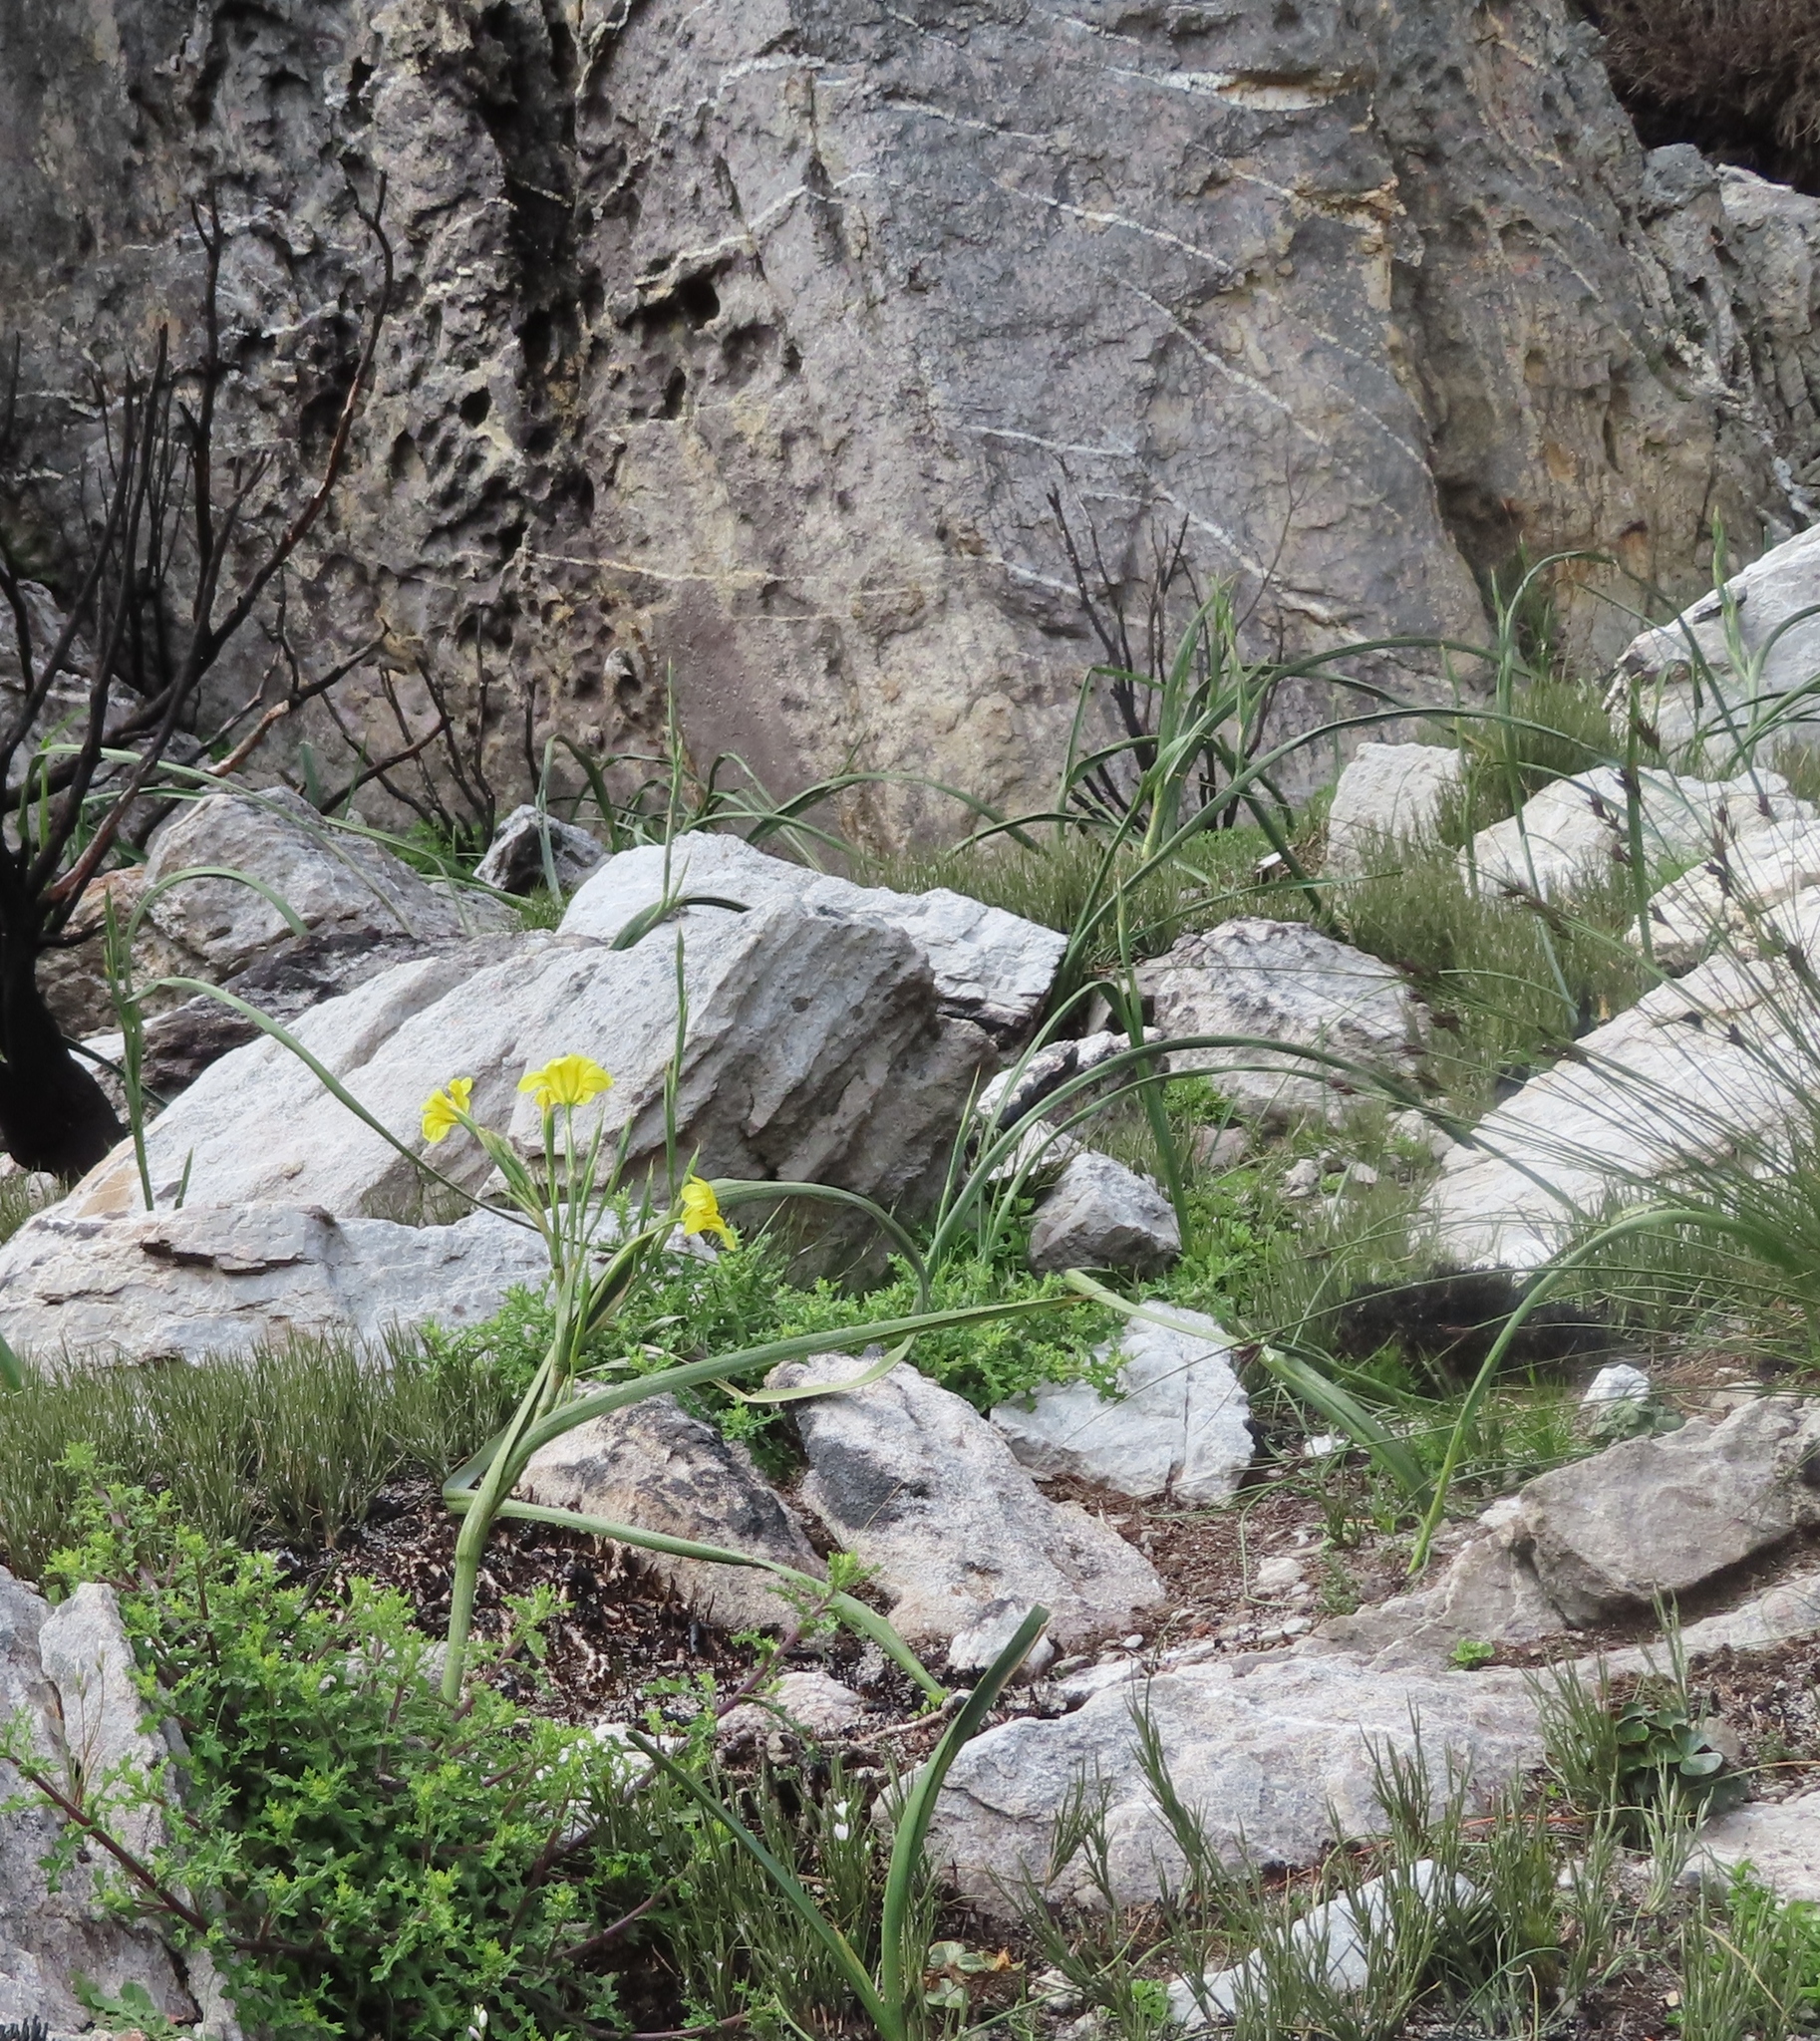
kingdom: Plantae
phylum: Tracheophyta
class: Liliopsida
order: Asparagales
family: Iridaceae
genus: Moraea
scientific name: Moraea ochroleuca
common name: Red tulp
